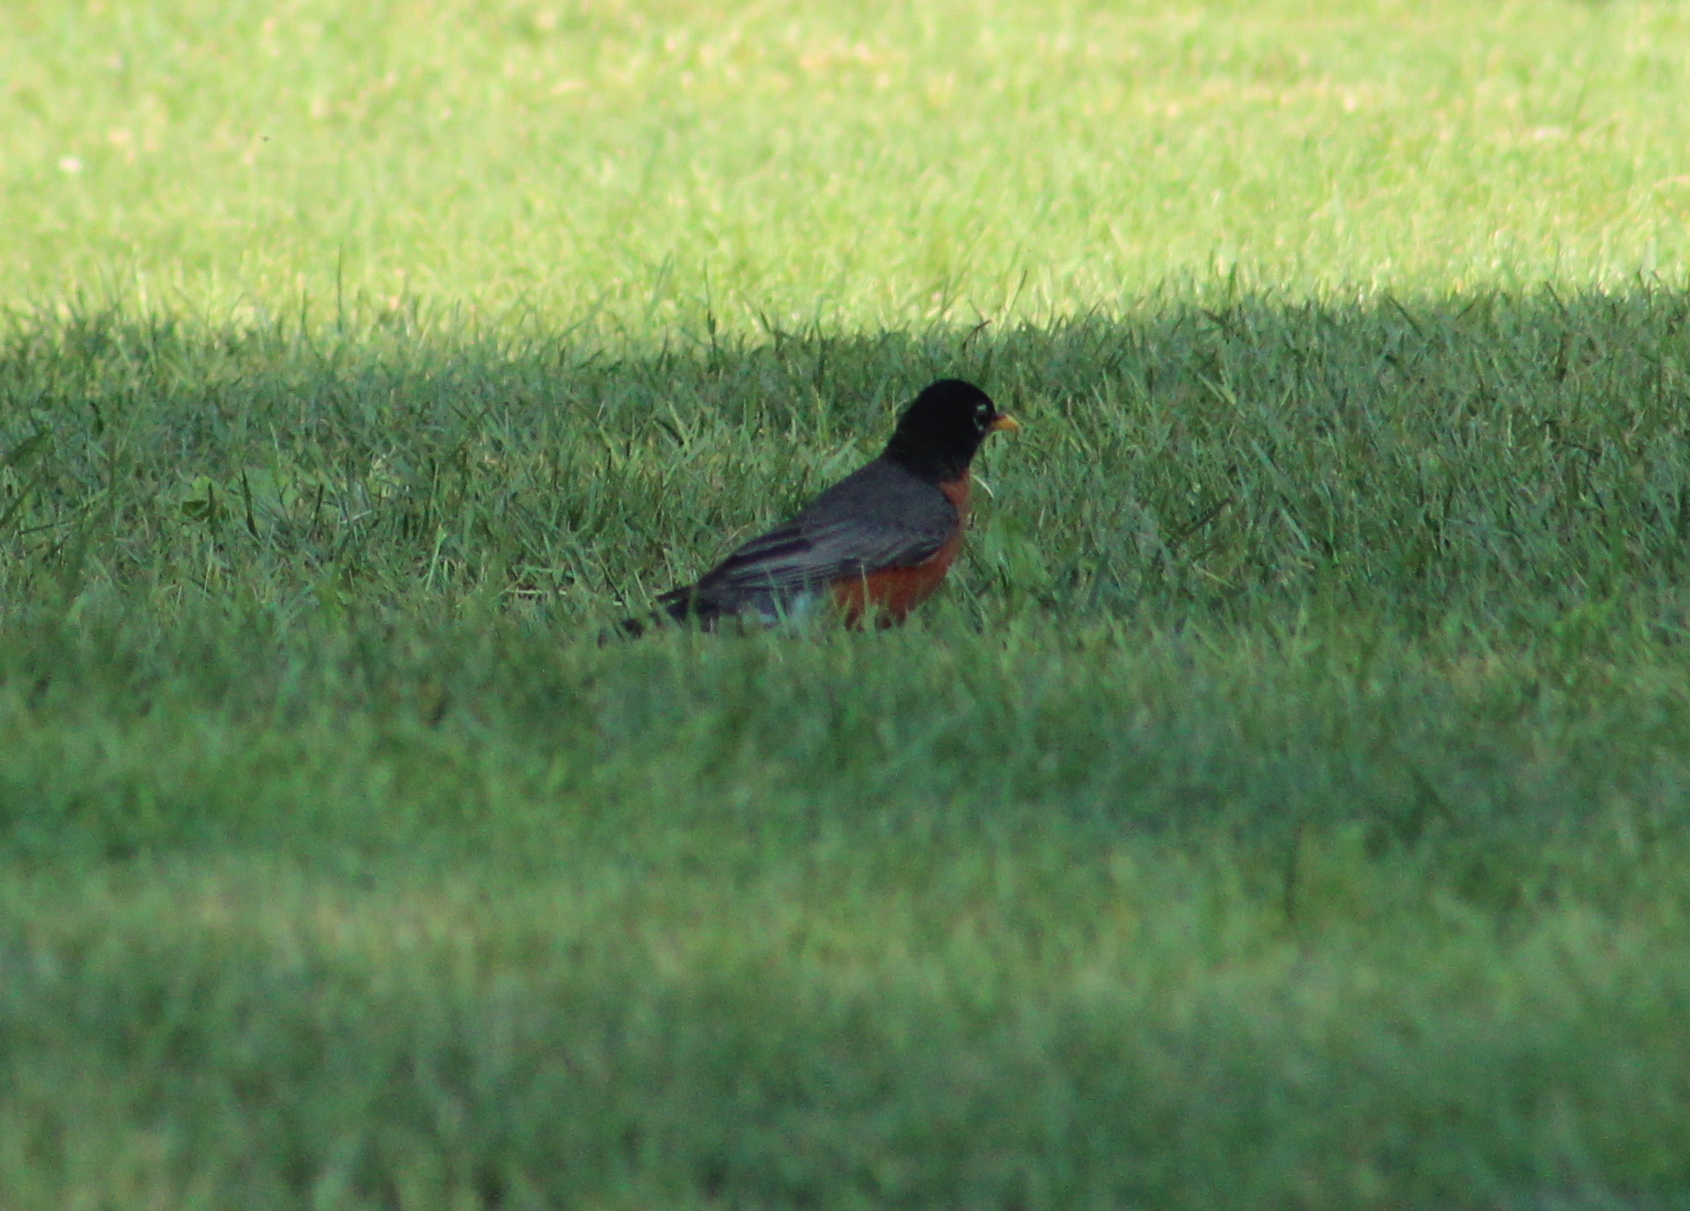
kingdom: Animalia
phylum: Chordata
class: Aves
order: Passeriformes
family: Turdidae
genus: Turdus
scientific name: Turdus migratorius
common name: American robin
